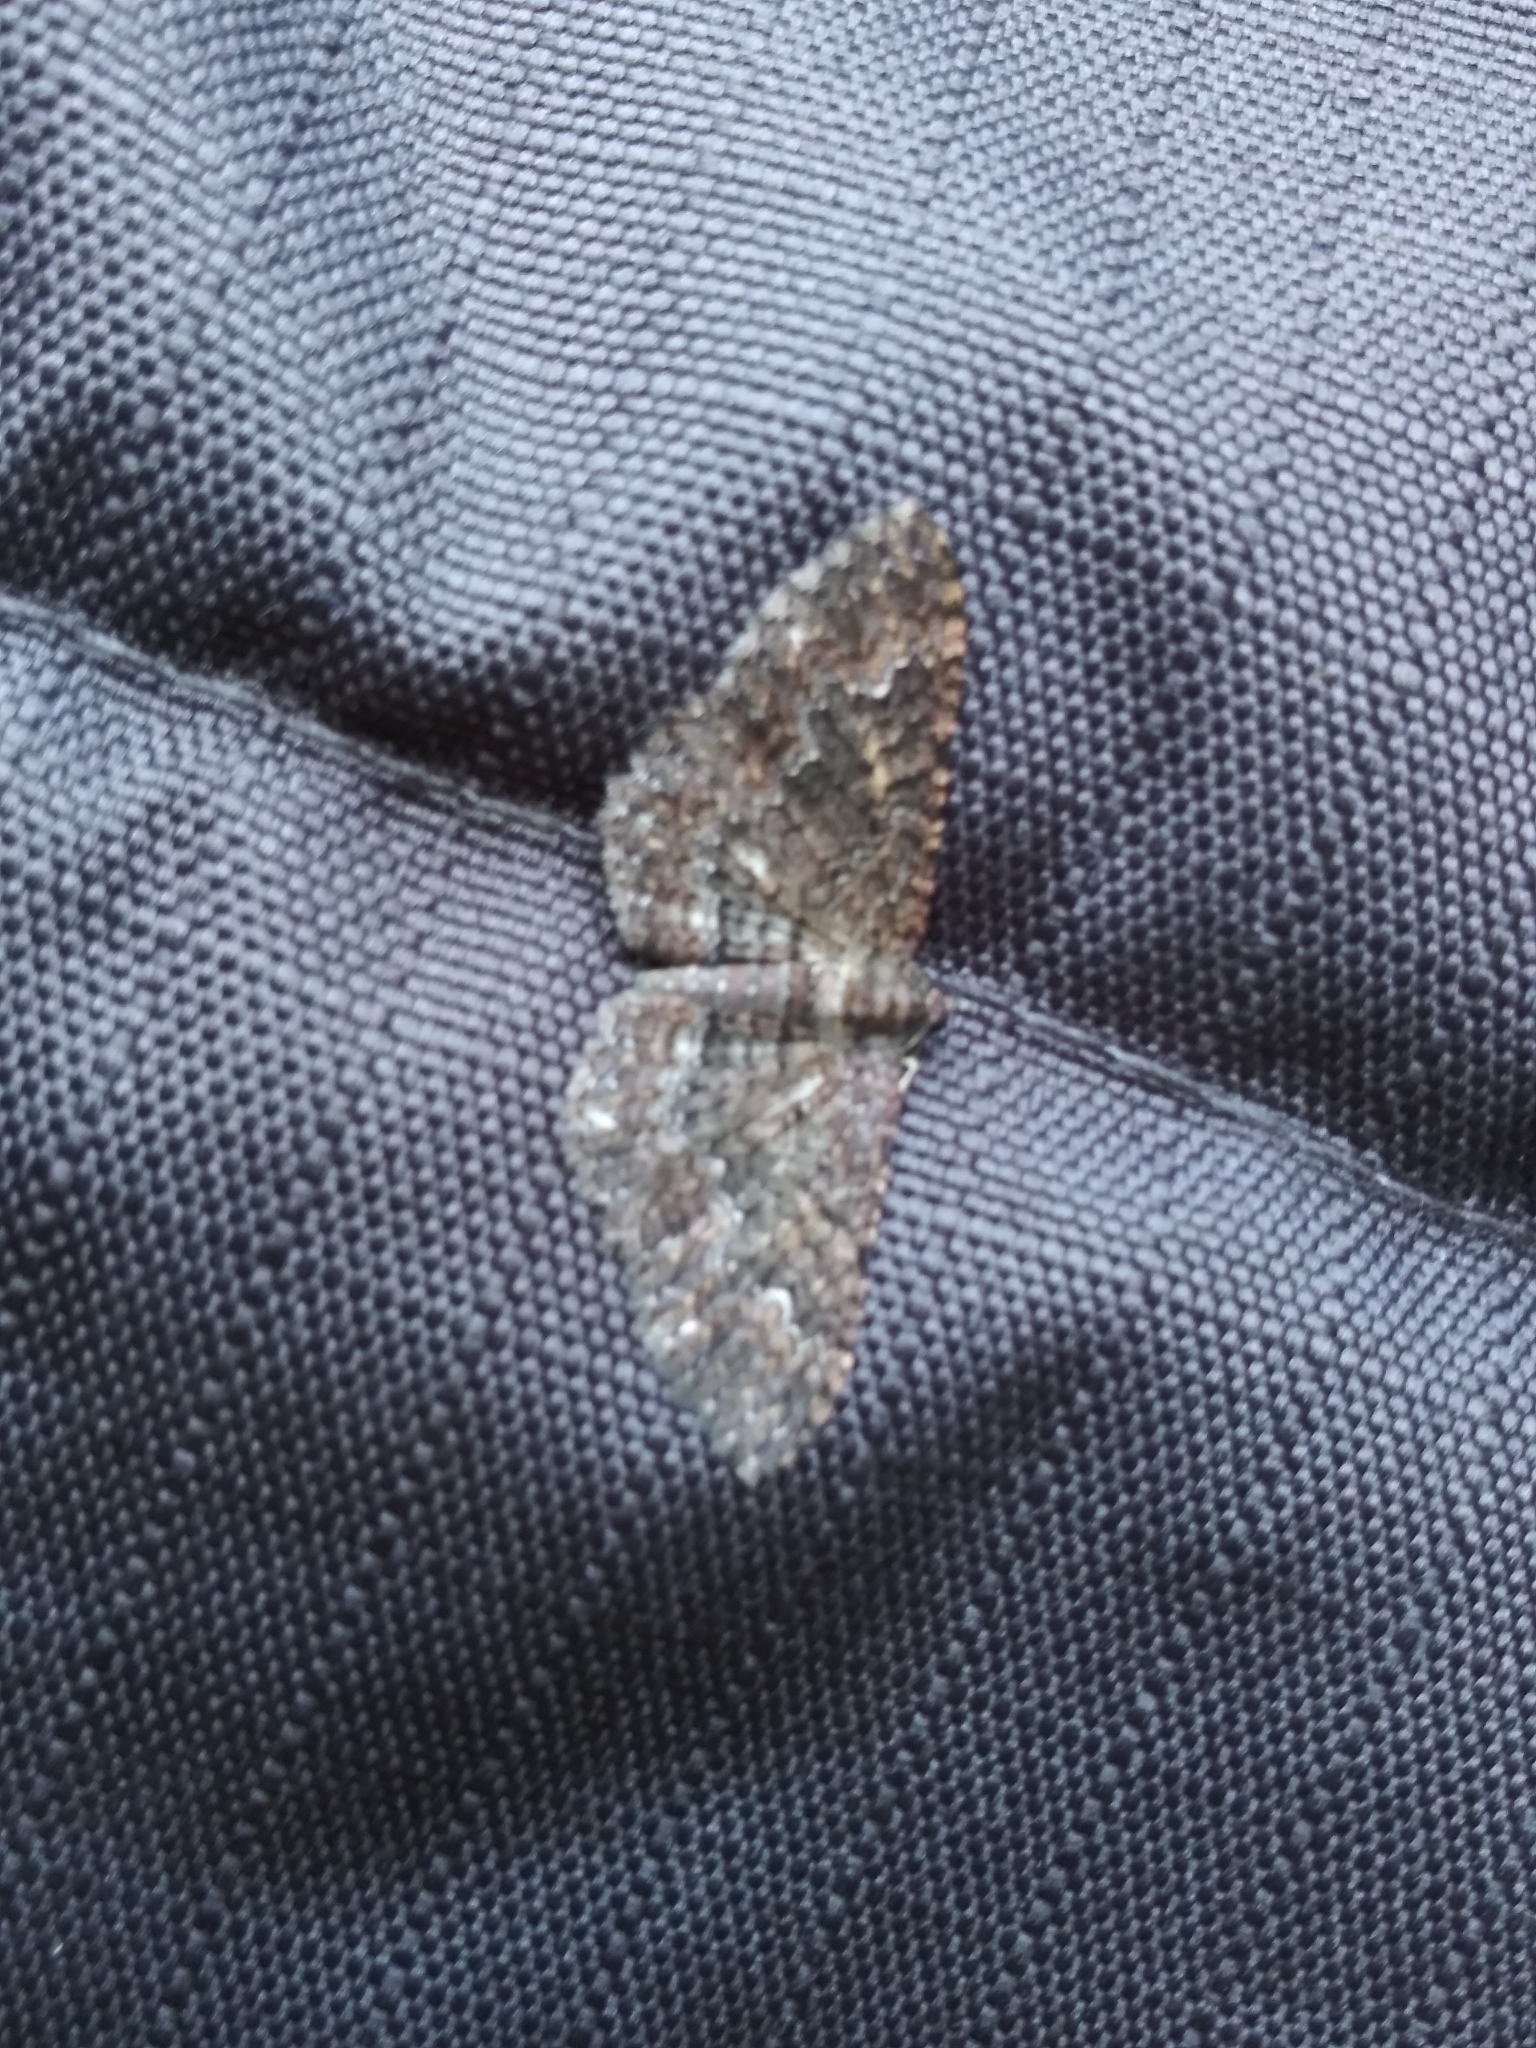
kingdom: Animalia
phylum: Arthropoda
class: Insecta
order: Lepidoptera
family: Geometridae
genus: Disclisioprocta
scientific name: Disclisioprocta stellata
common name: Somber carpet
